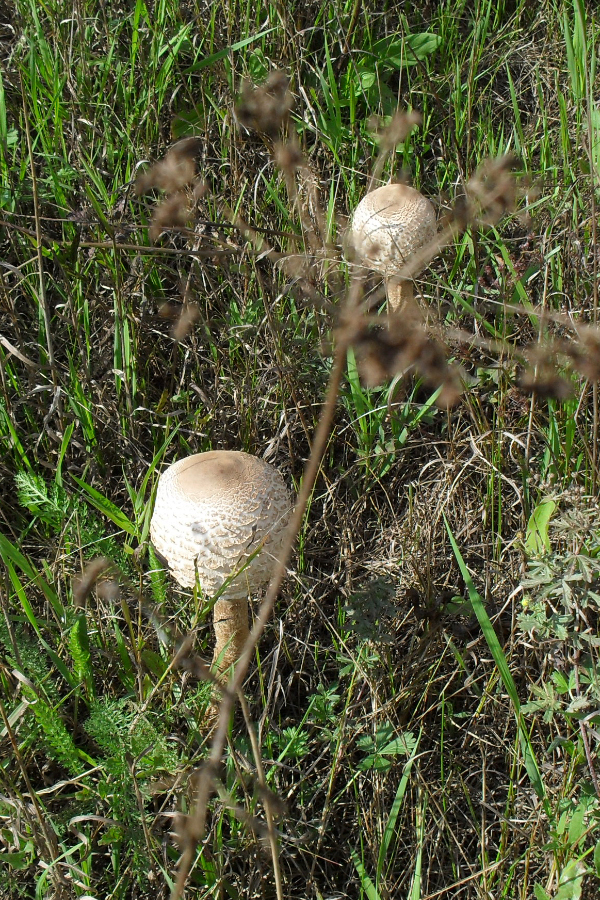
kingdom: Fungi
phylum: Basidiomycota
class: Agaricomycetes
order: Agaricales
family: Agaricaceae
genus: Macrolepiota
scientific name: Macrolepiota procera
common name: Parasol
